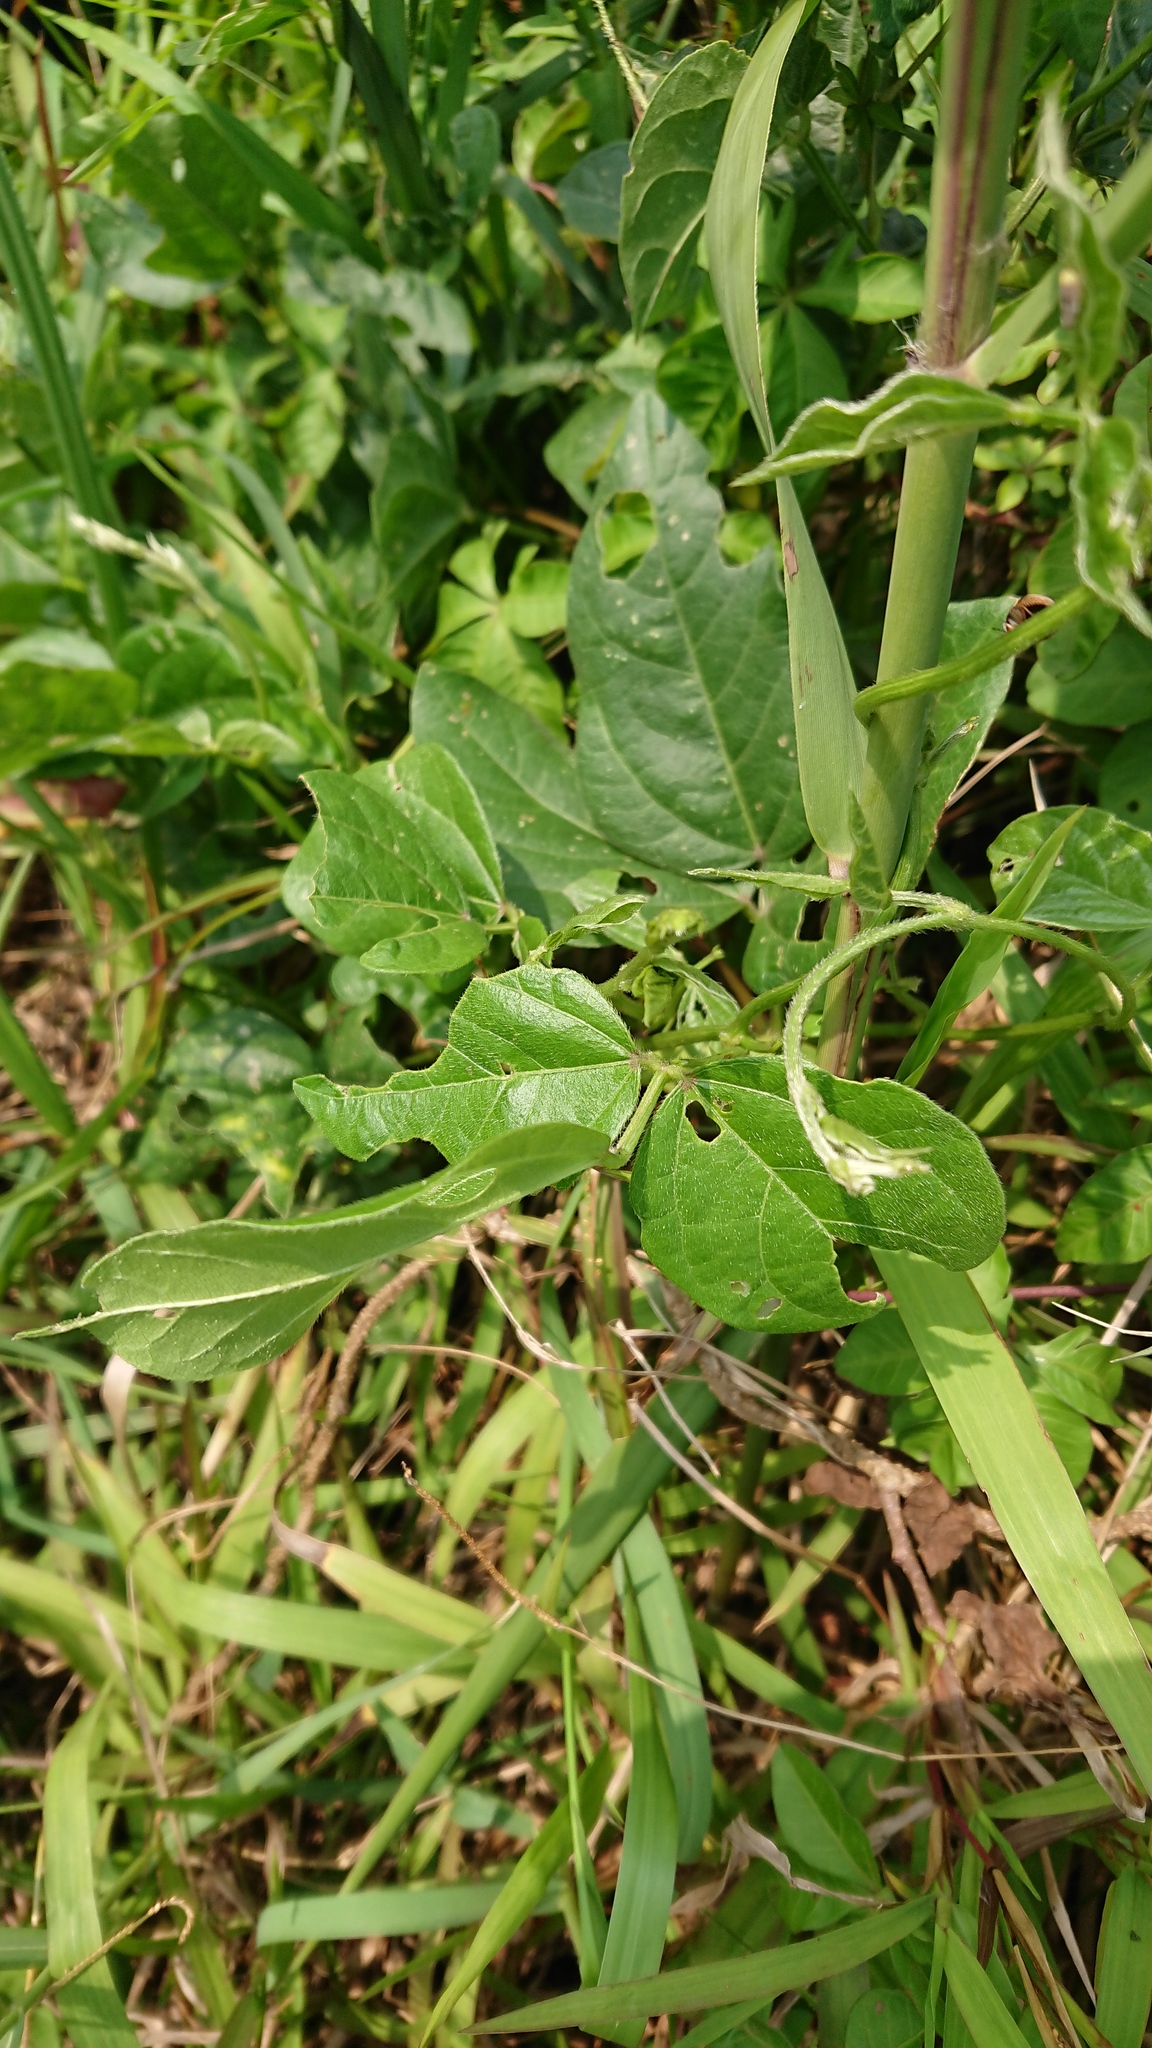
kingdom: Plantae
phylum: Tracheophyta
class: Magnoliopsida
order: Fabales
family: Fabaceae
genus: Vigna
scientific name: Vigna luteola
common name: Hairypod cowpea
